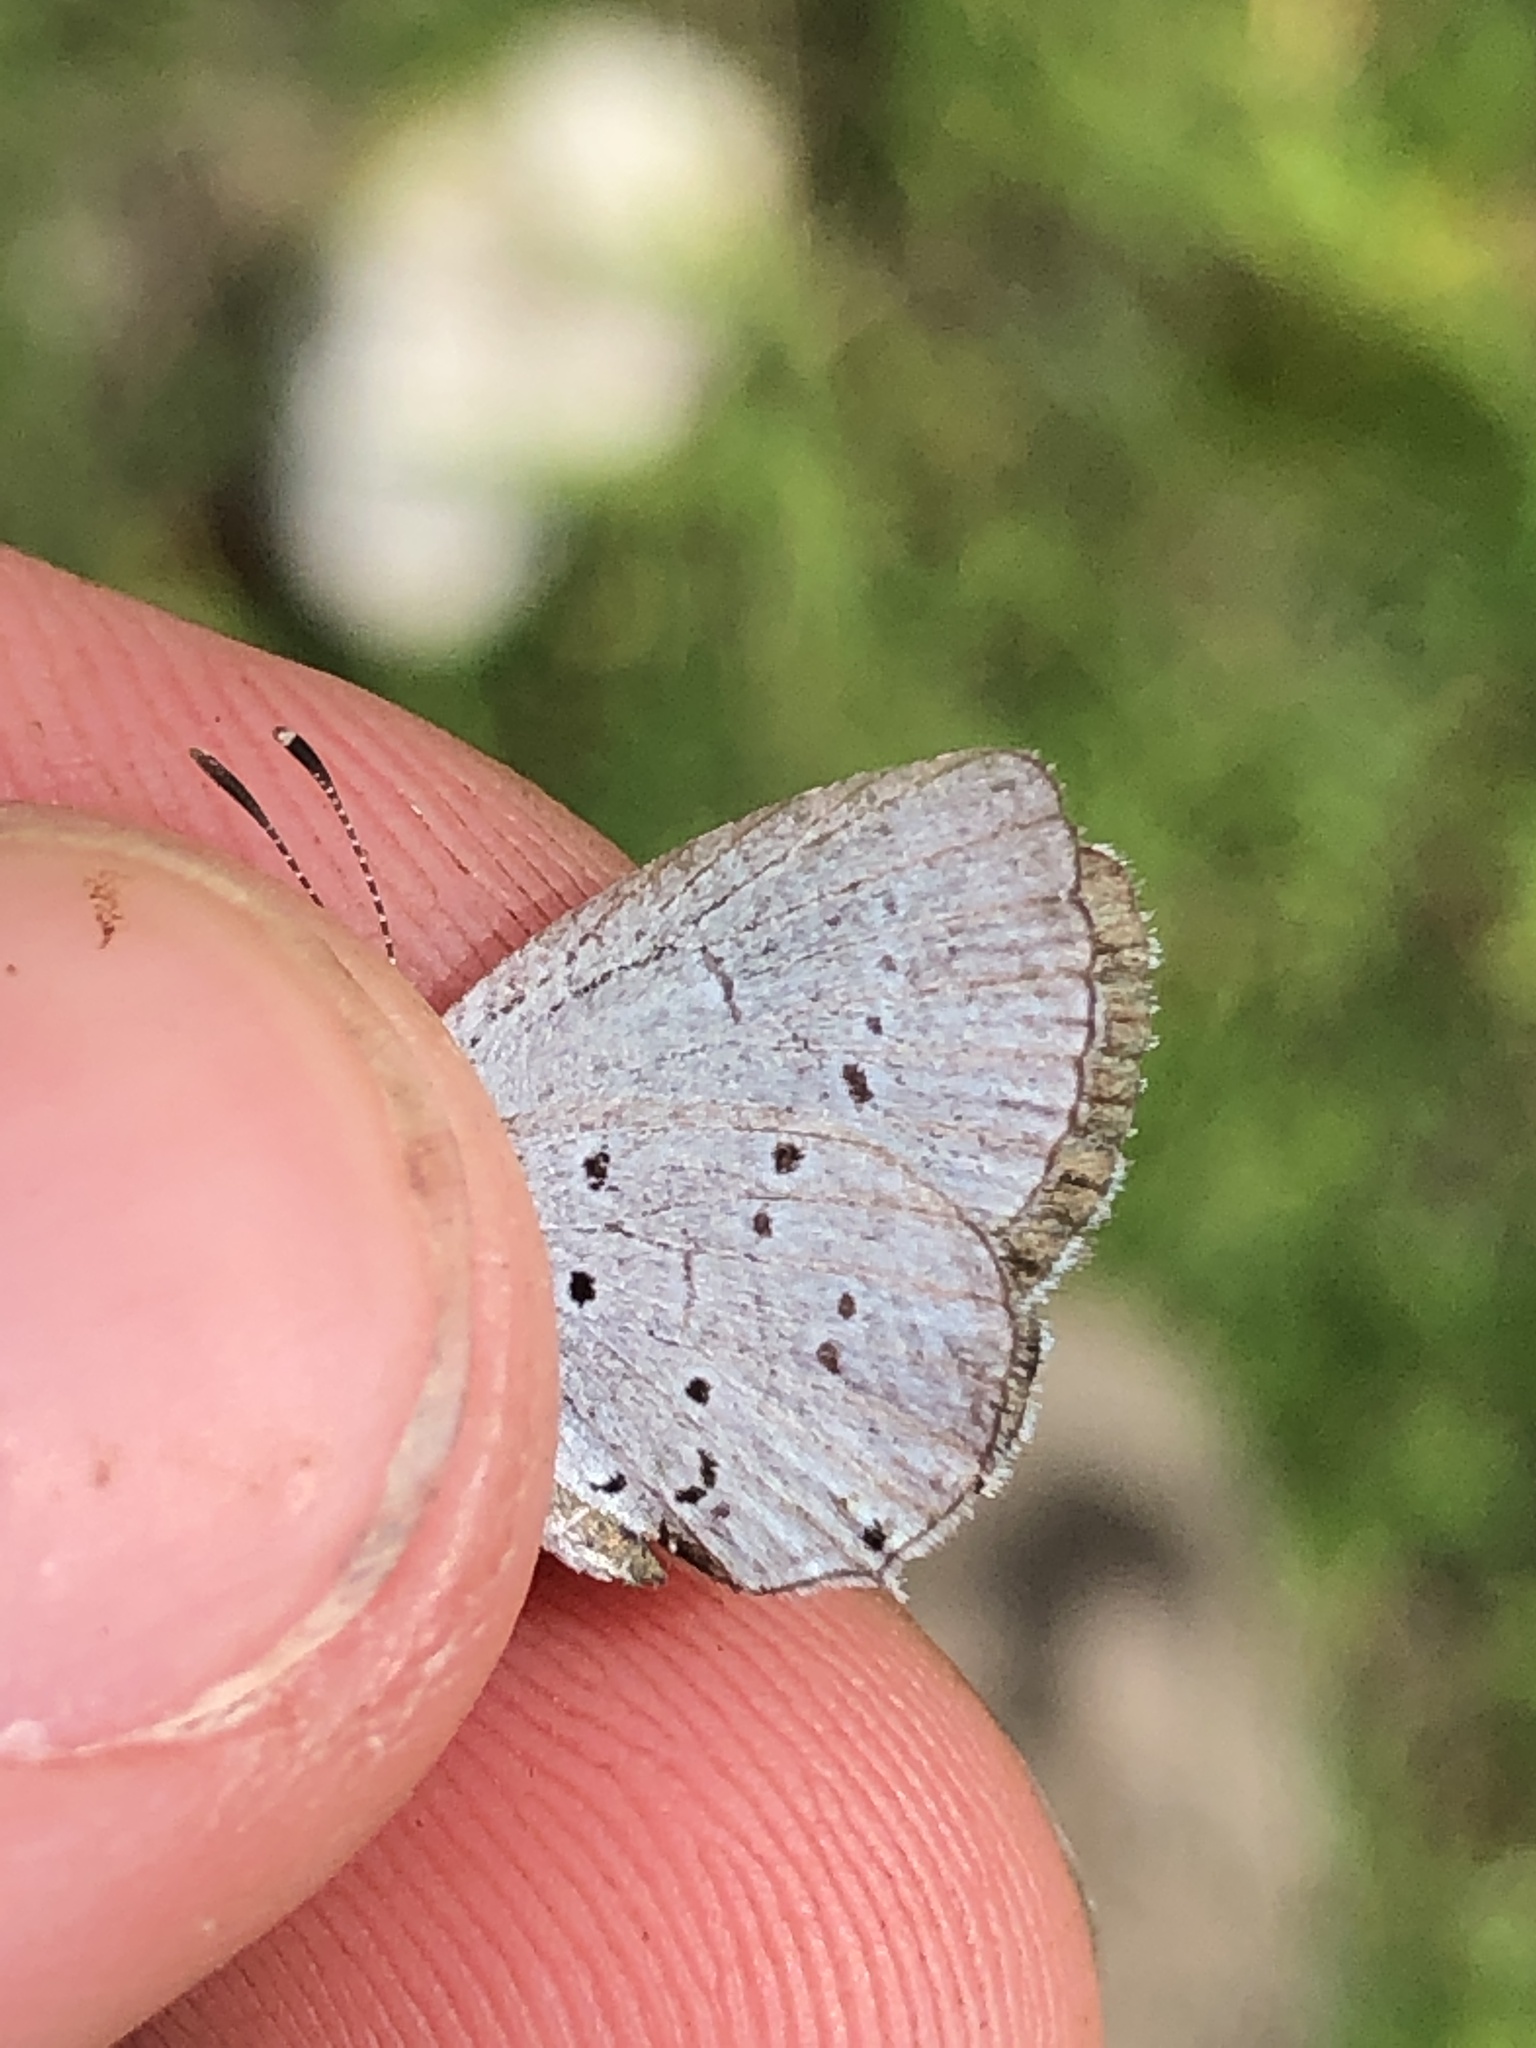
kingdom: Animalia
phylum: Arthropoda
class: Insecta
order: Lepidoptera
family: Lycaenidae
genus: Elkalyce
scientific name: Elkalyce alcetas
